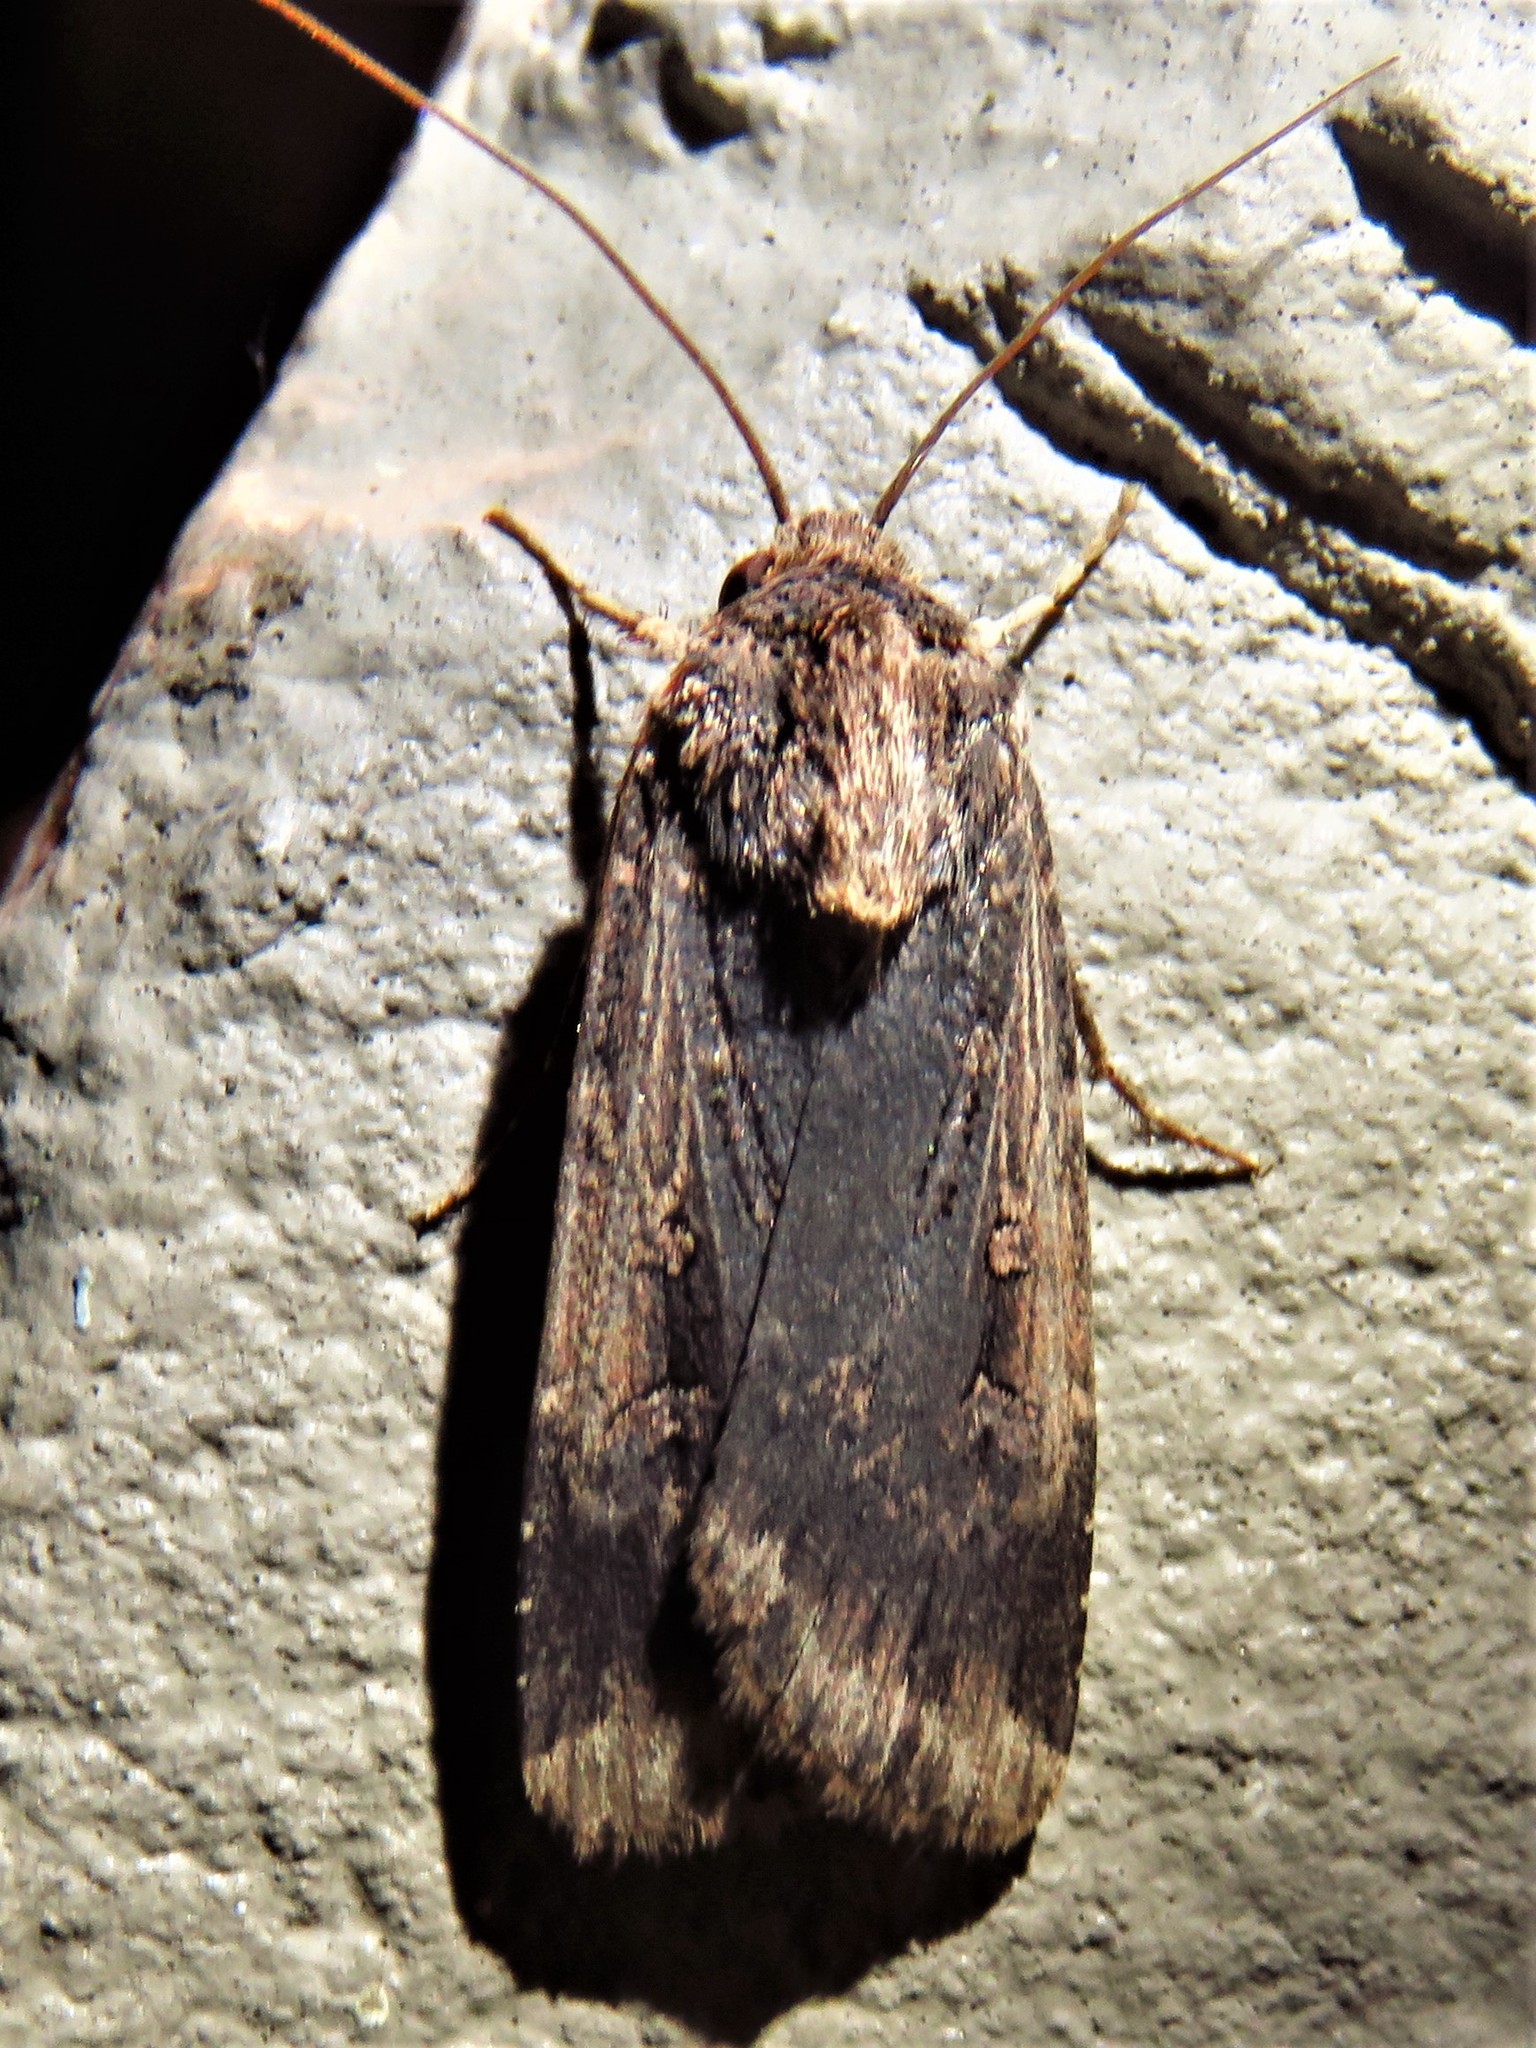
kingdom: Animalia
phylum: Arthropoda
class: Insecta
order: Lepidoptera
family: Noctuidae
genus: Feltia
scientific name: Feltia subterranea
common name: Granulate cutworm
